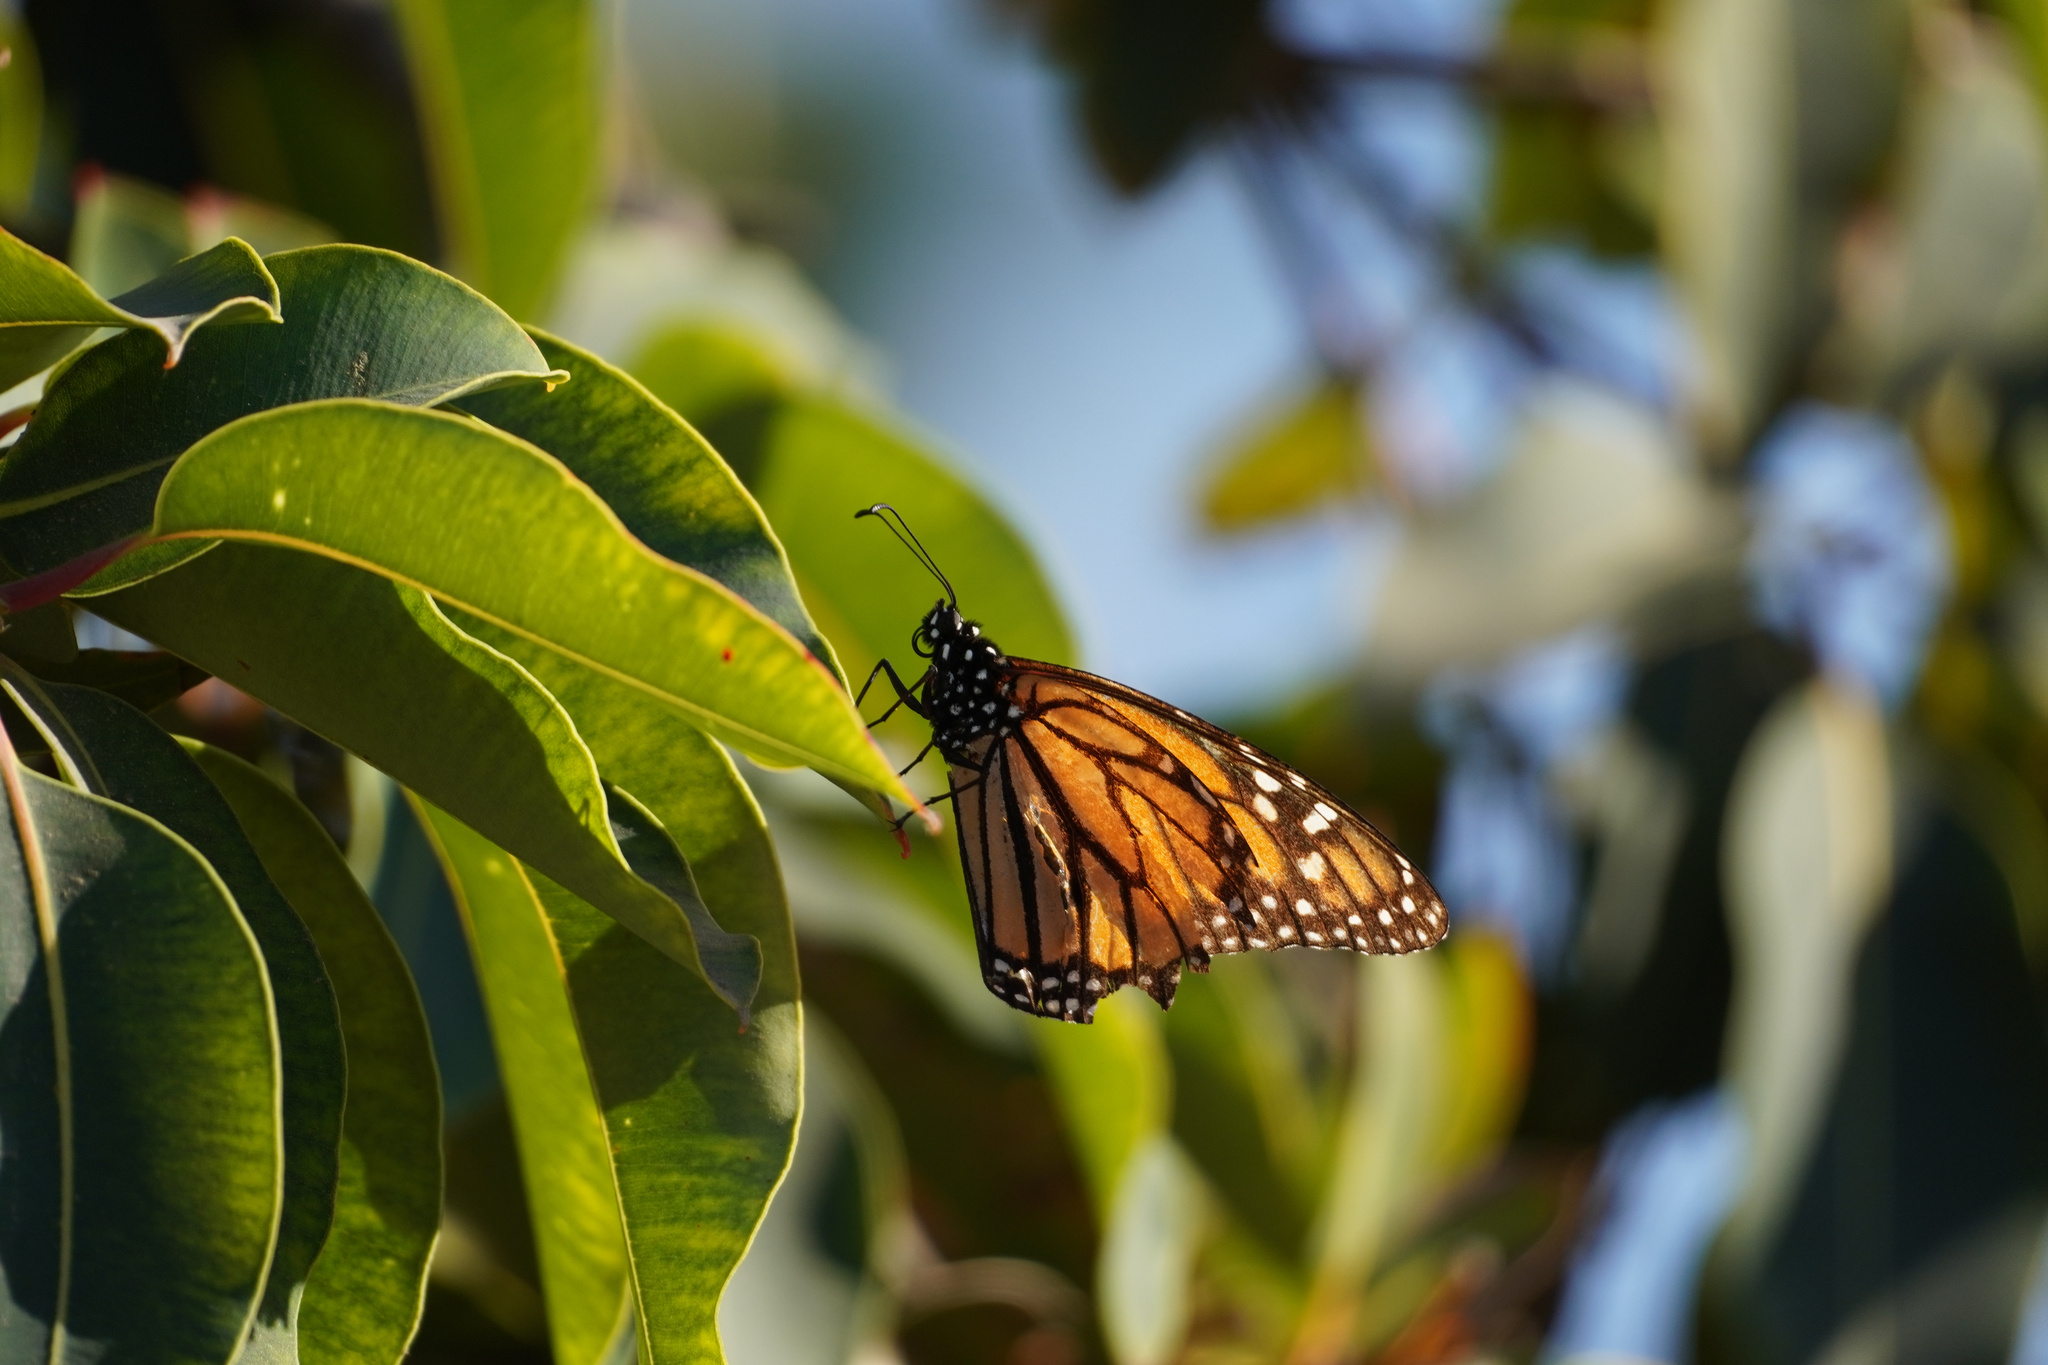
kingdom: Animalia
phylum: Arthropoda
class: Insecta
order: Lepidoptera
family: Nymphalidae
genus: Danaus
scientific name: Danaus plexippus
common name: Monarch
